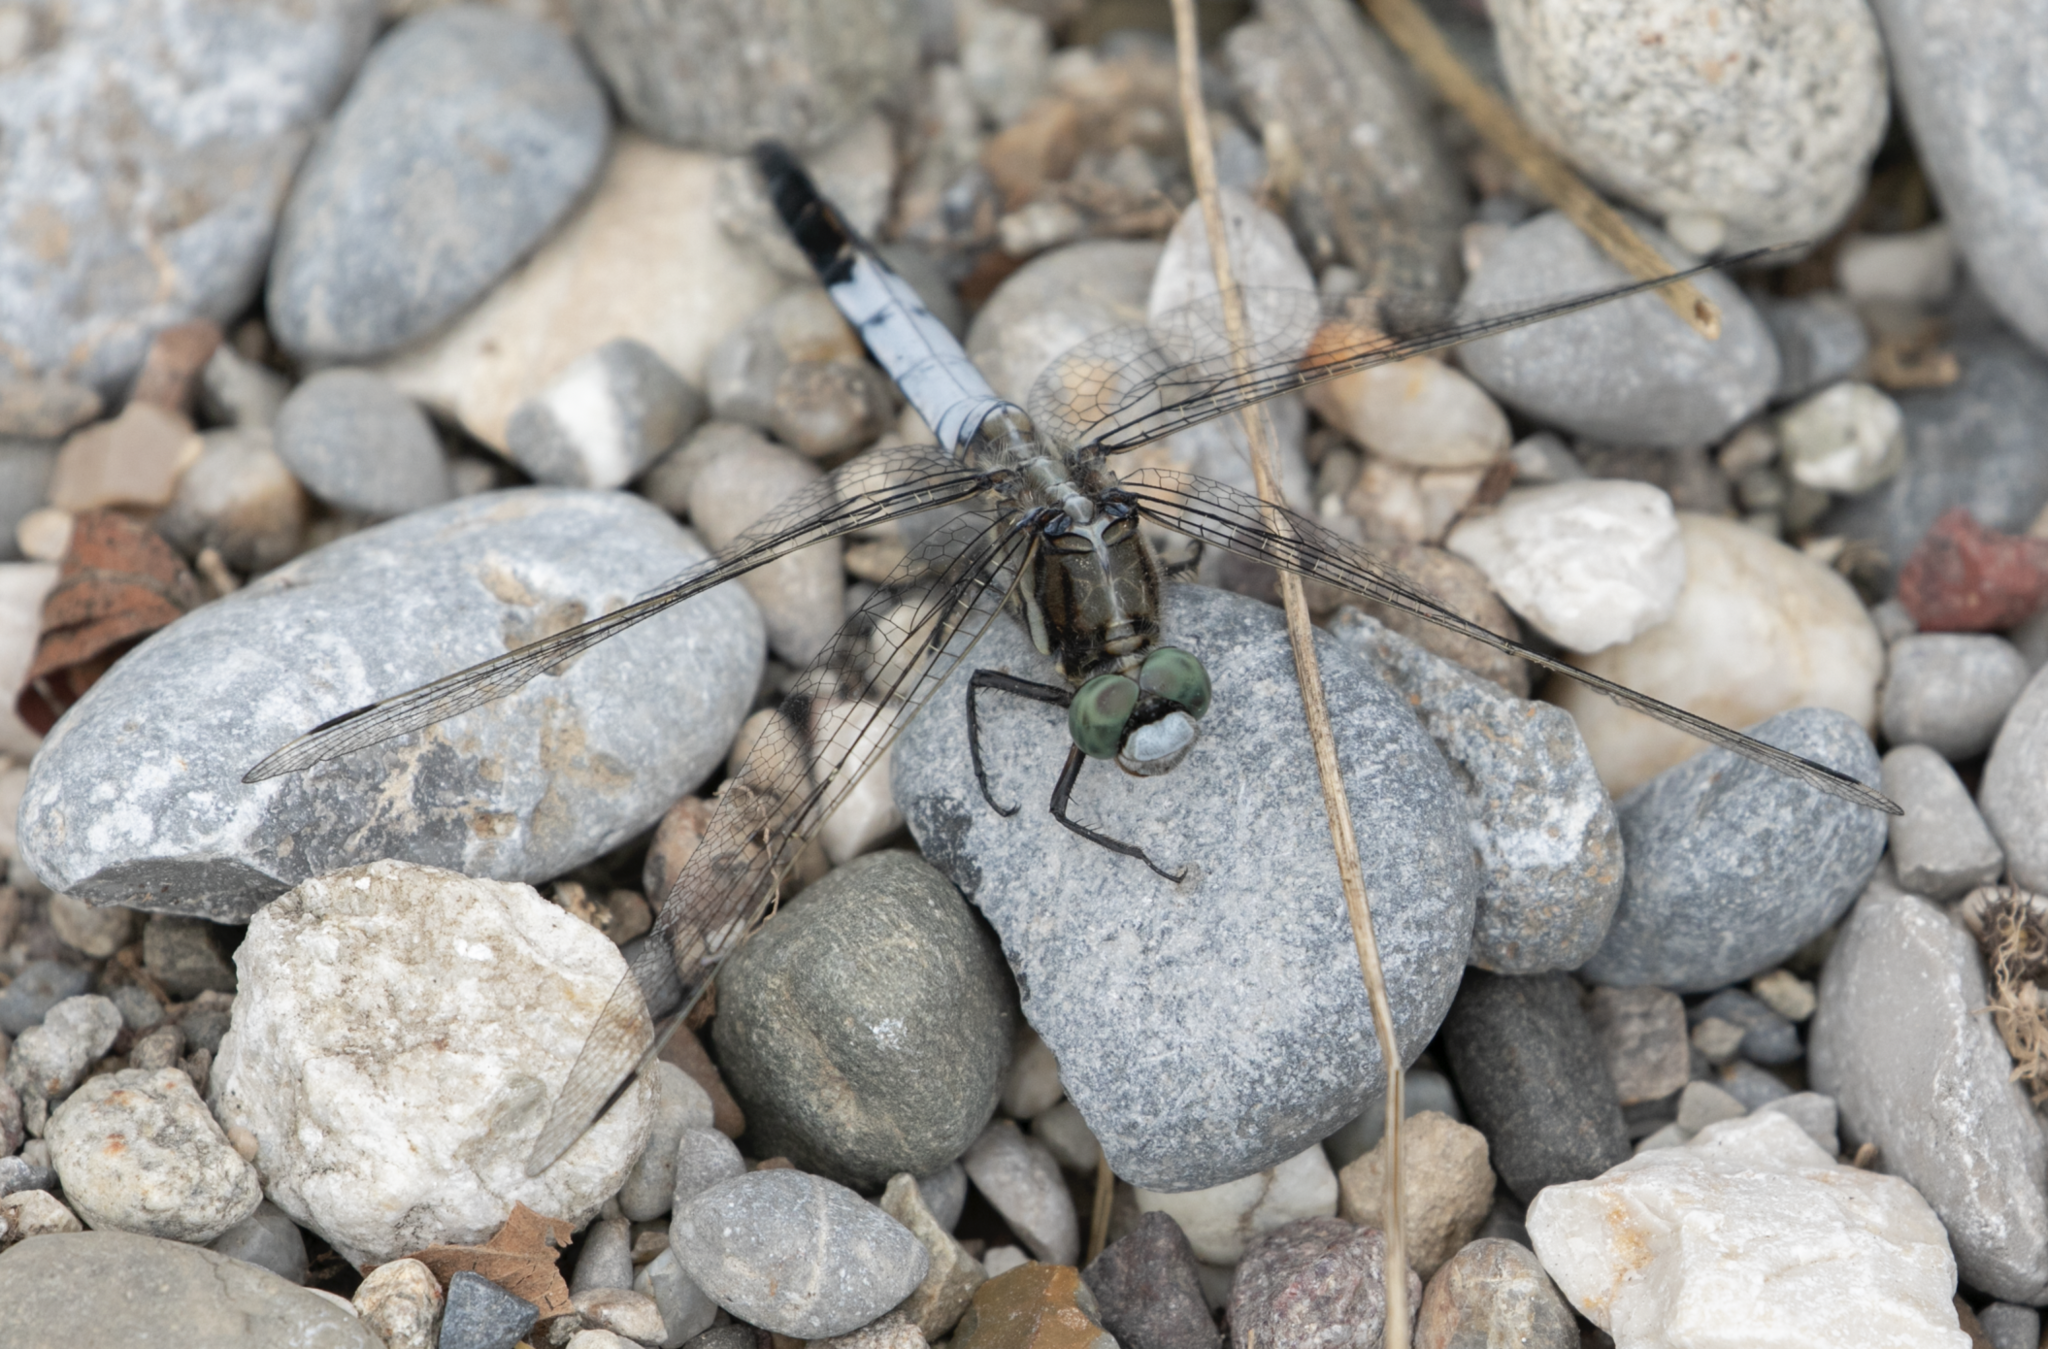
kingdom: Animalia
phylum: Arthropoda
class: Insecta
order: Odonata
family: Libellulidae
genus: Orthetrum
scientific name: Orthetrum albistylum
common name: White-tailed skimmer
